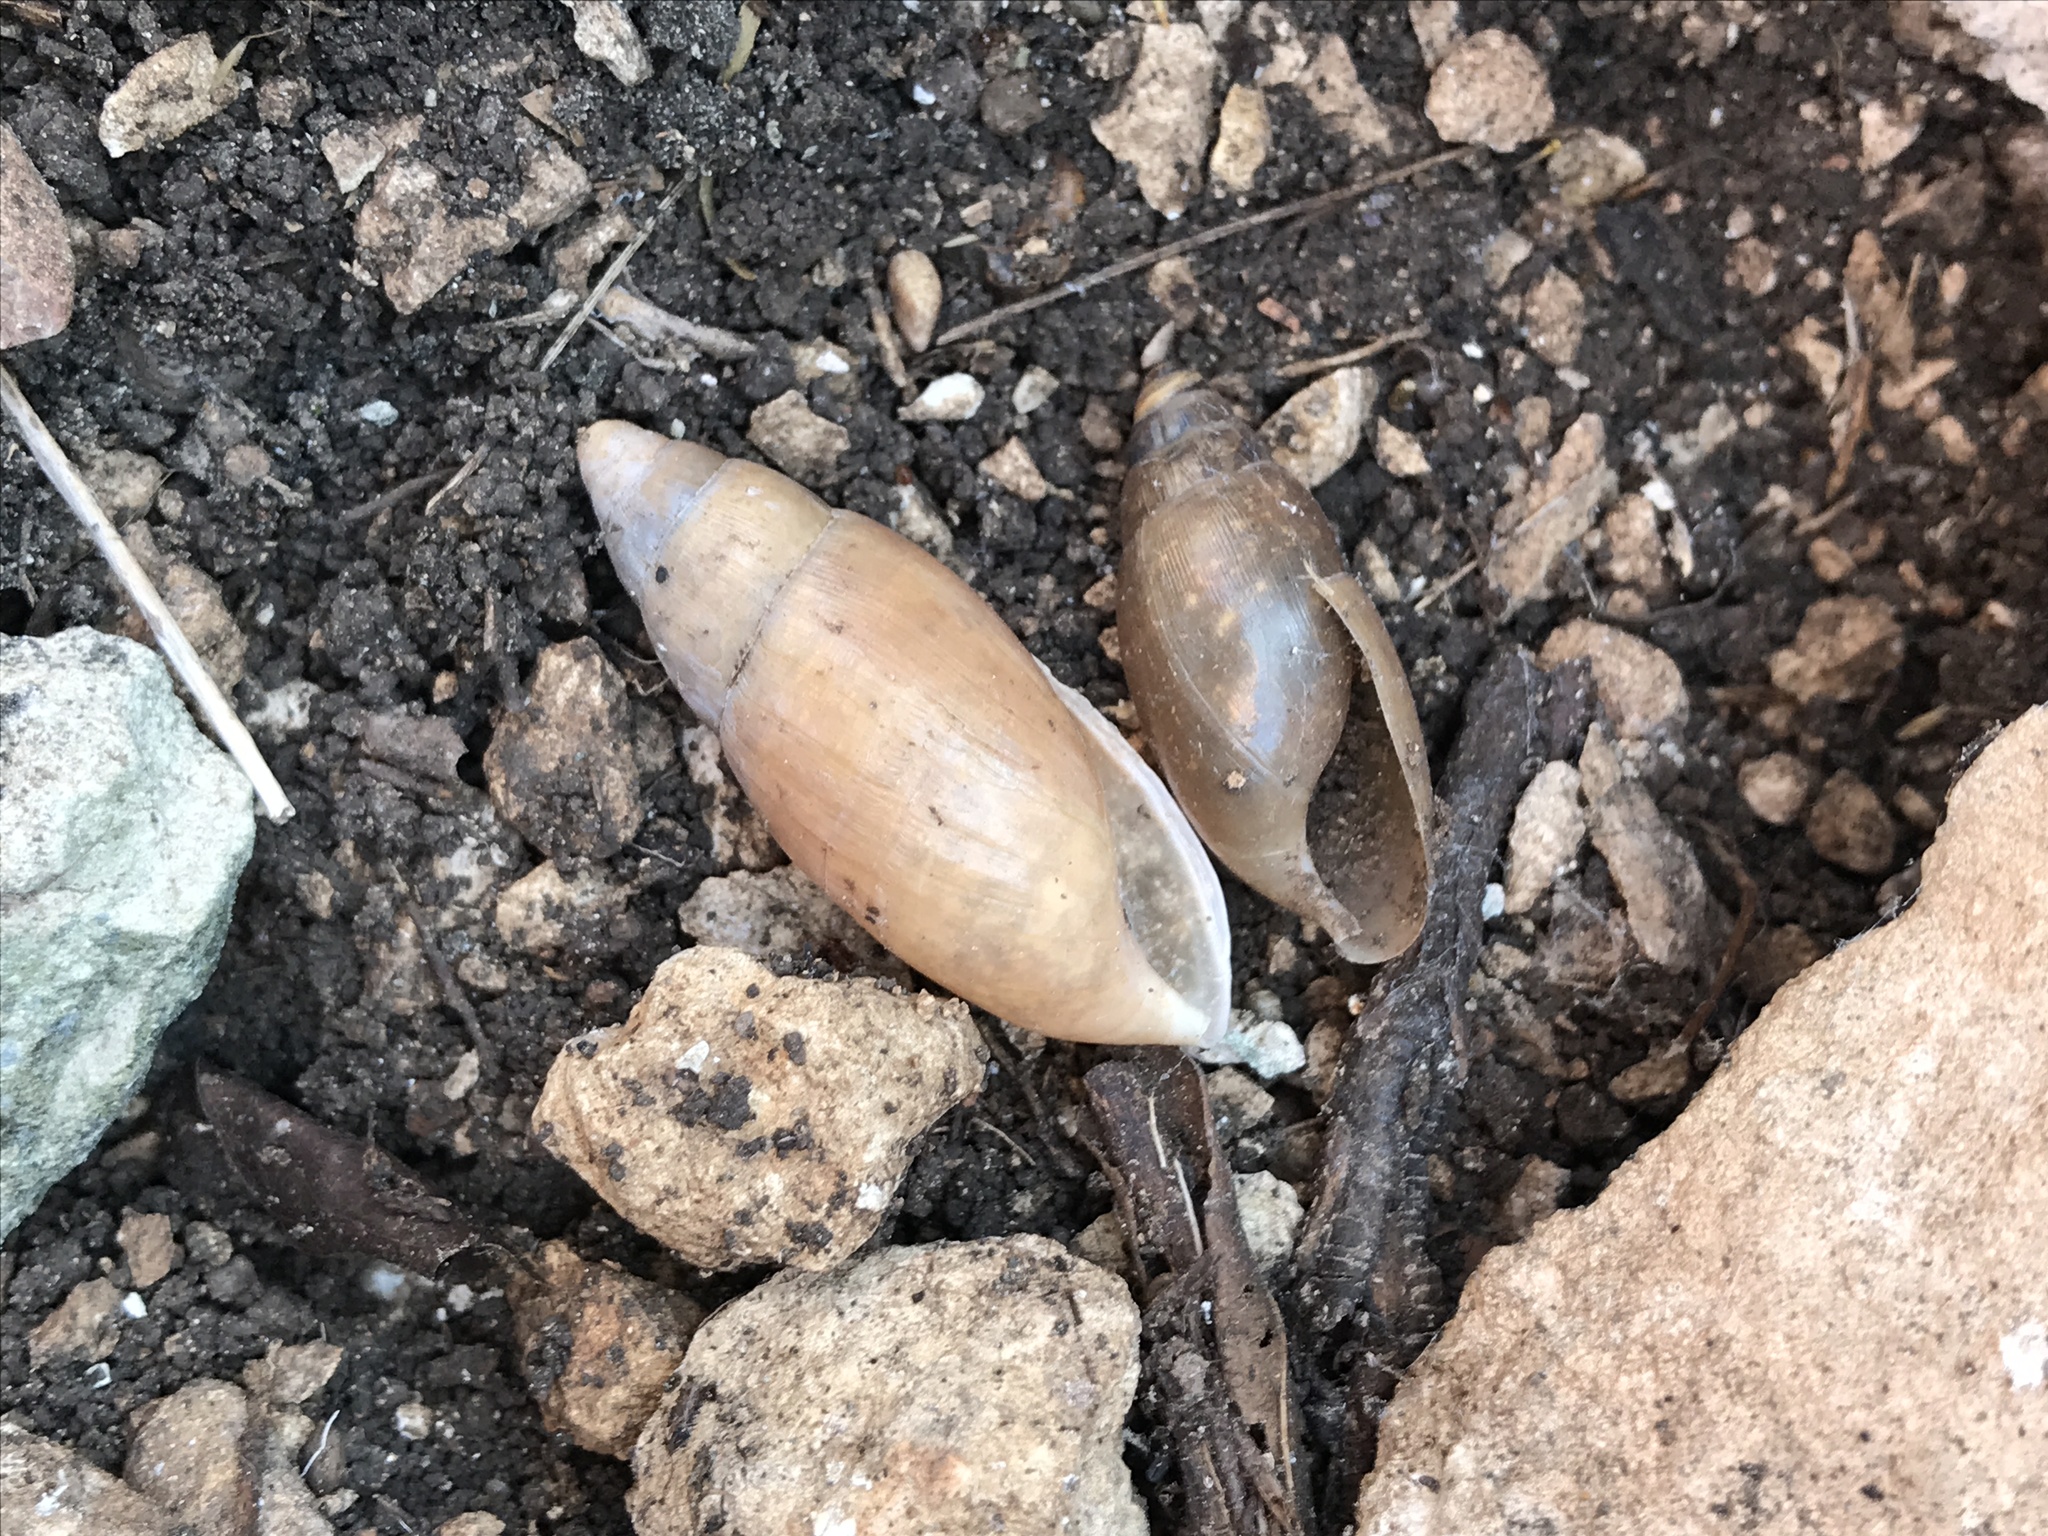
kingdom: Animalia
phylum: Mollusca
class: Gastropoda
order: Stylommatophora
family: Spiraxidae
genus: Euglandina
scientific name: Euglandina singleyana
